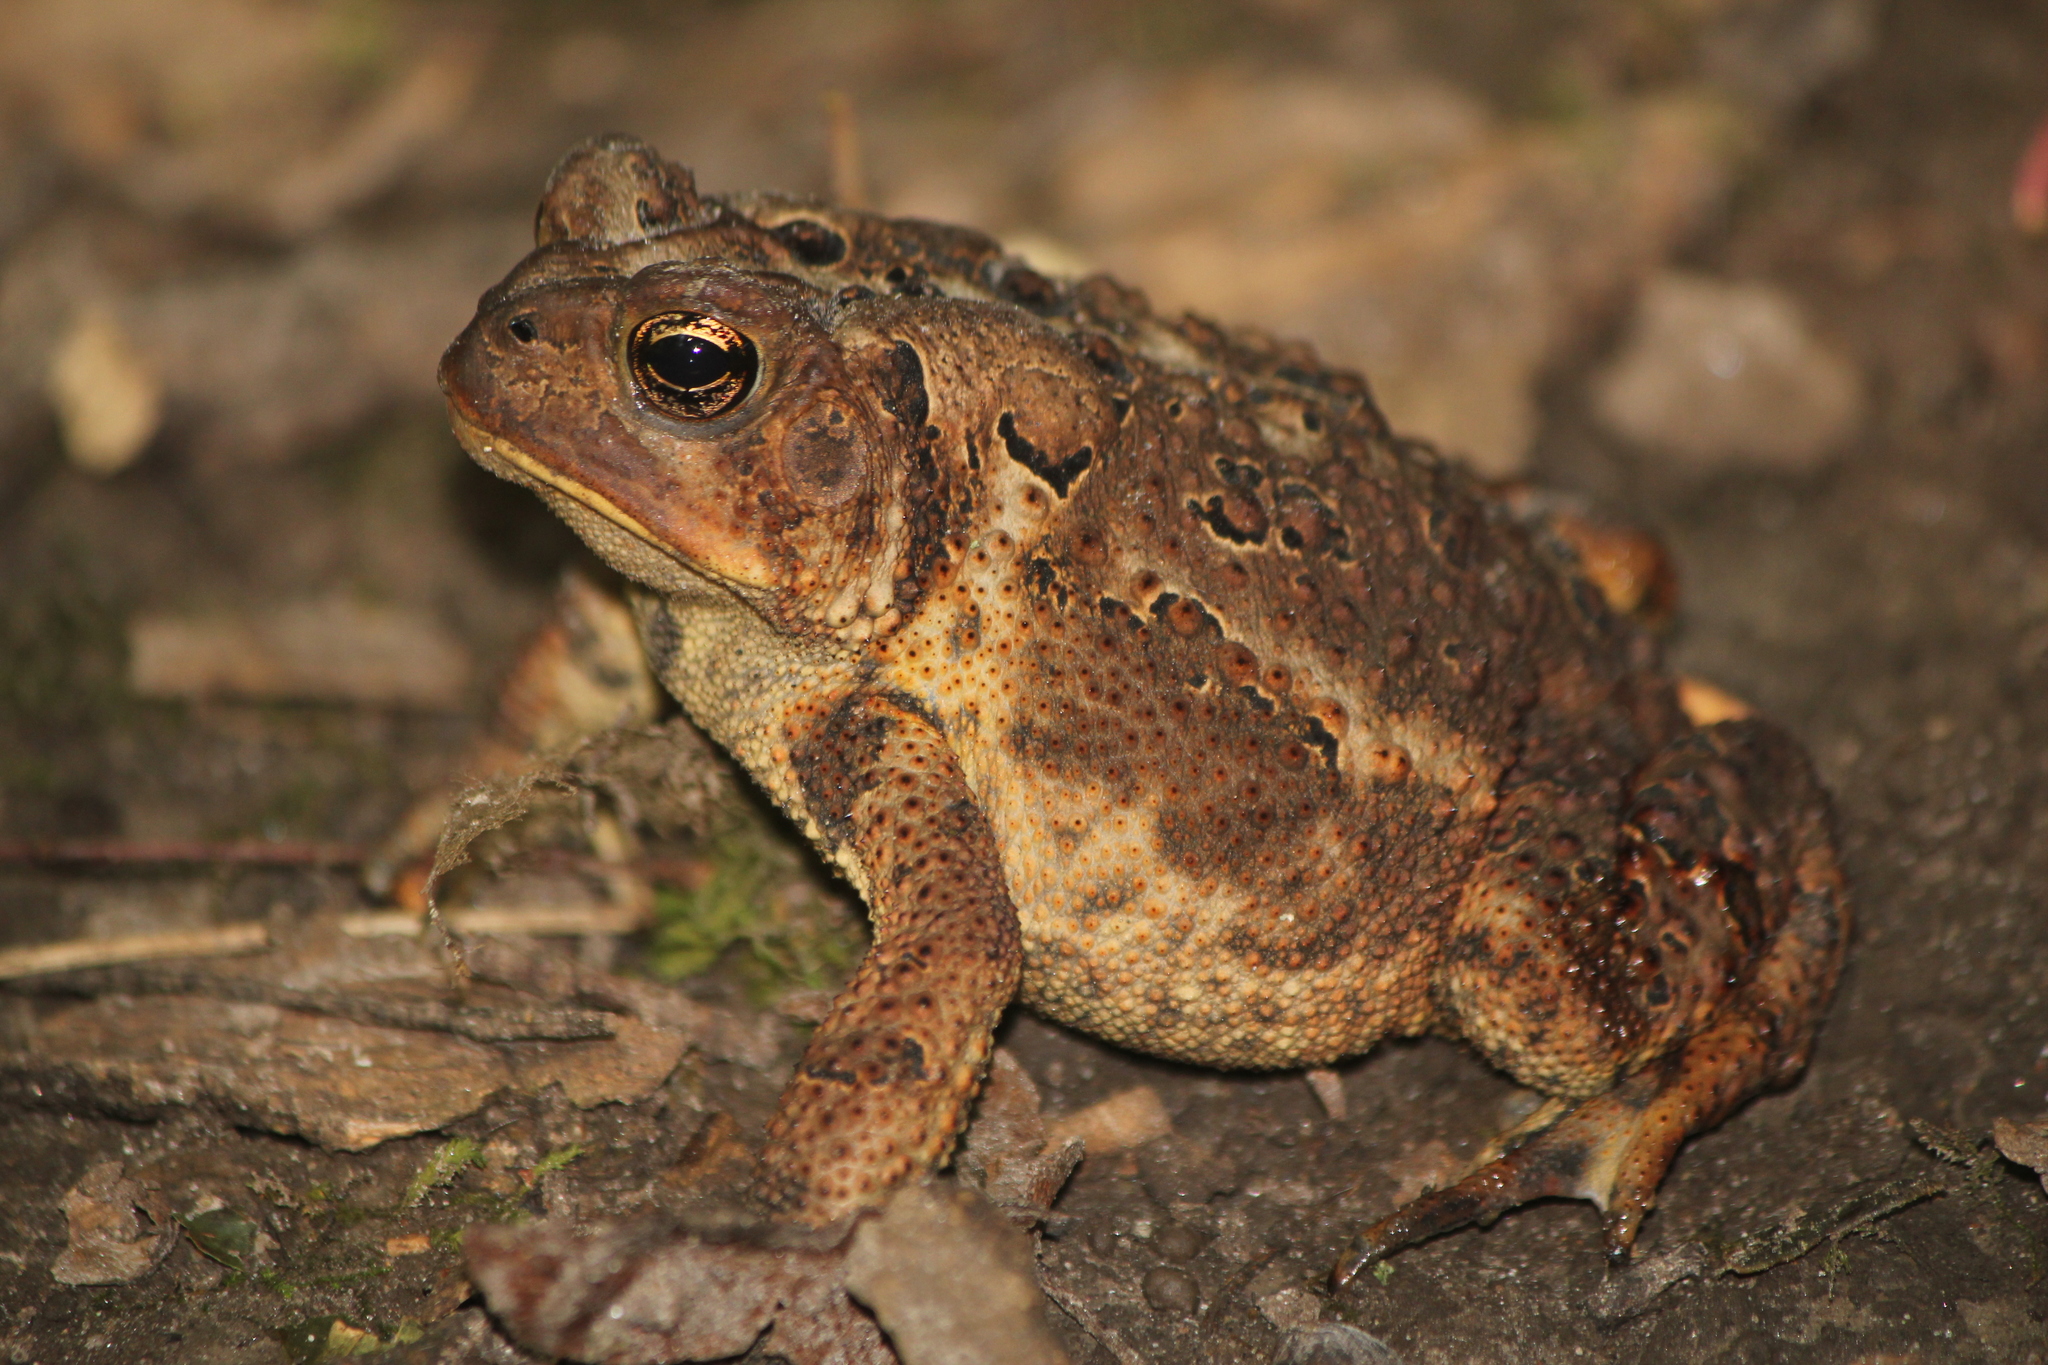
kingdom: Animalia
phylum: Chordata
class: Amphibia
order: Anura
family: Bufonidae
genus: Anaxyrus
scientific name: Anaxyrus americanus
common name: American toad
